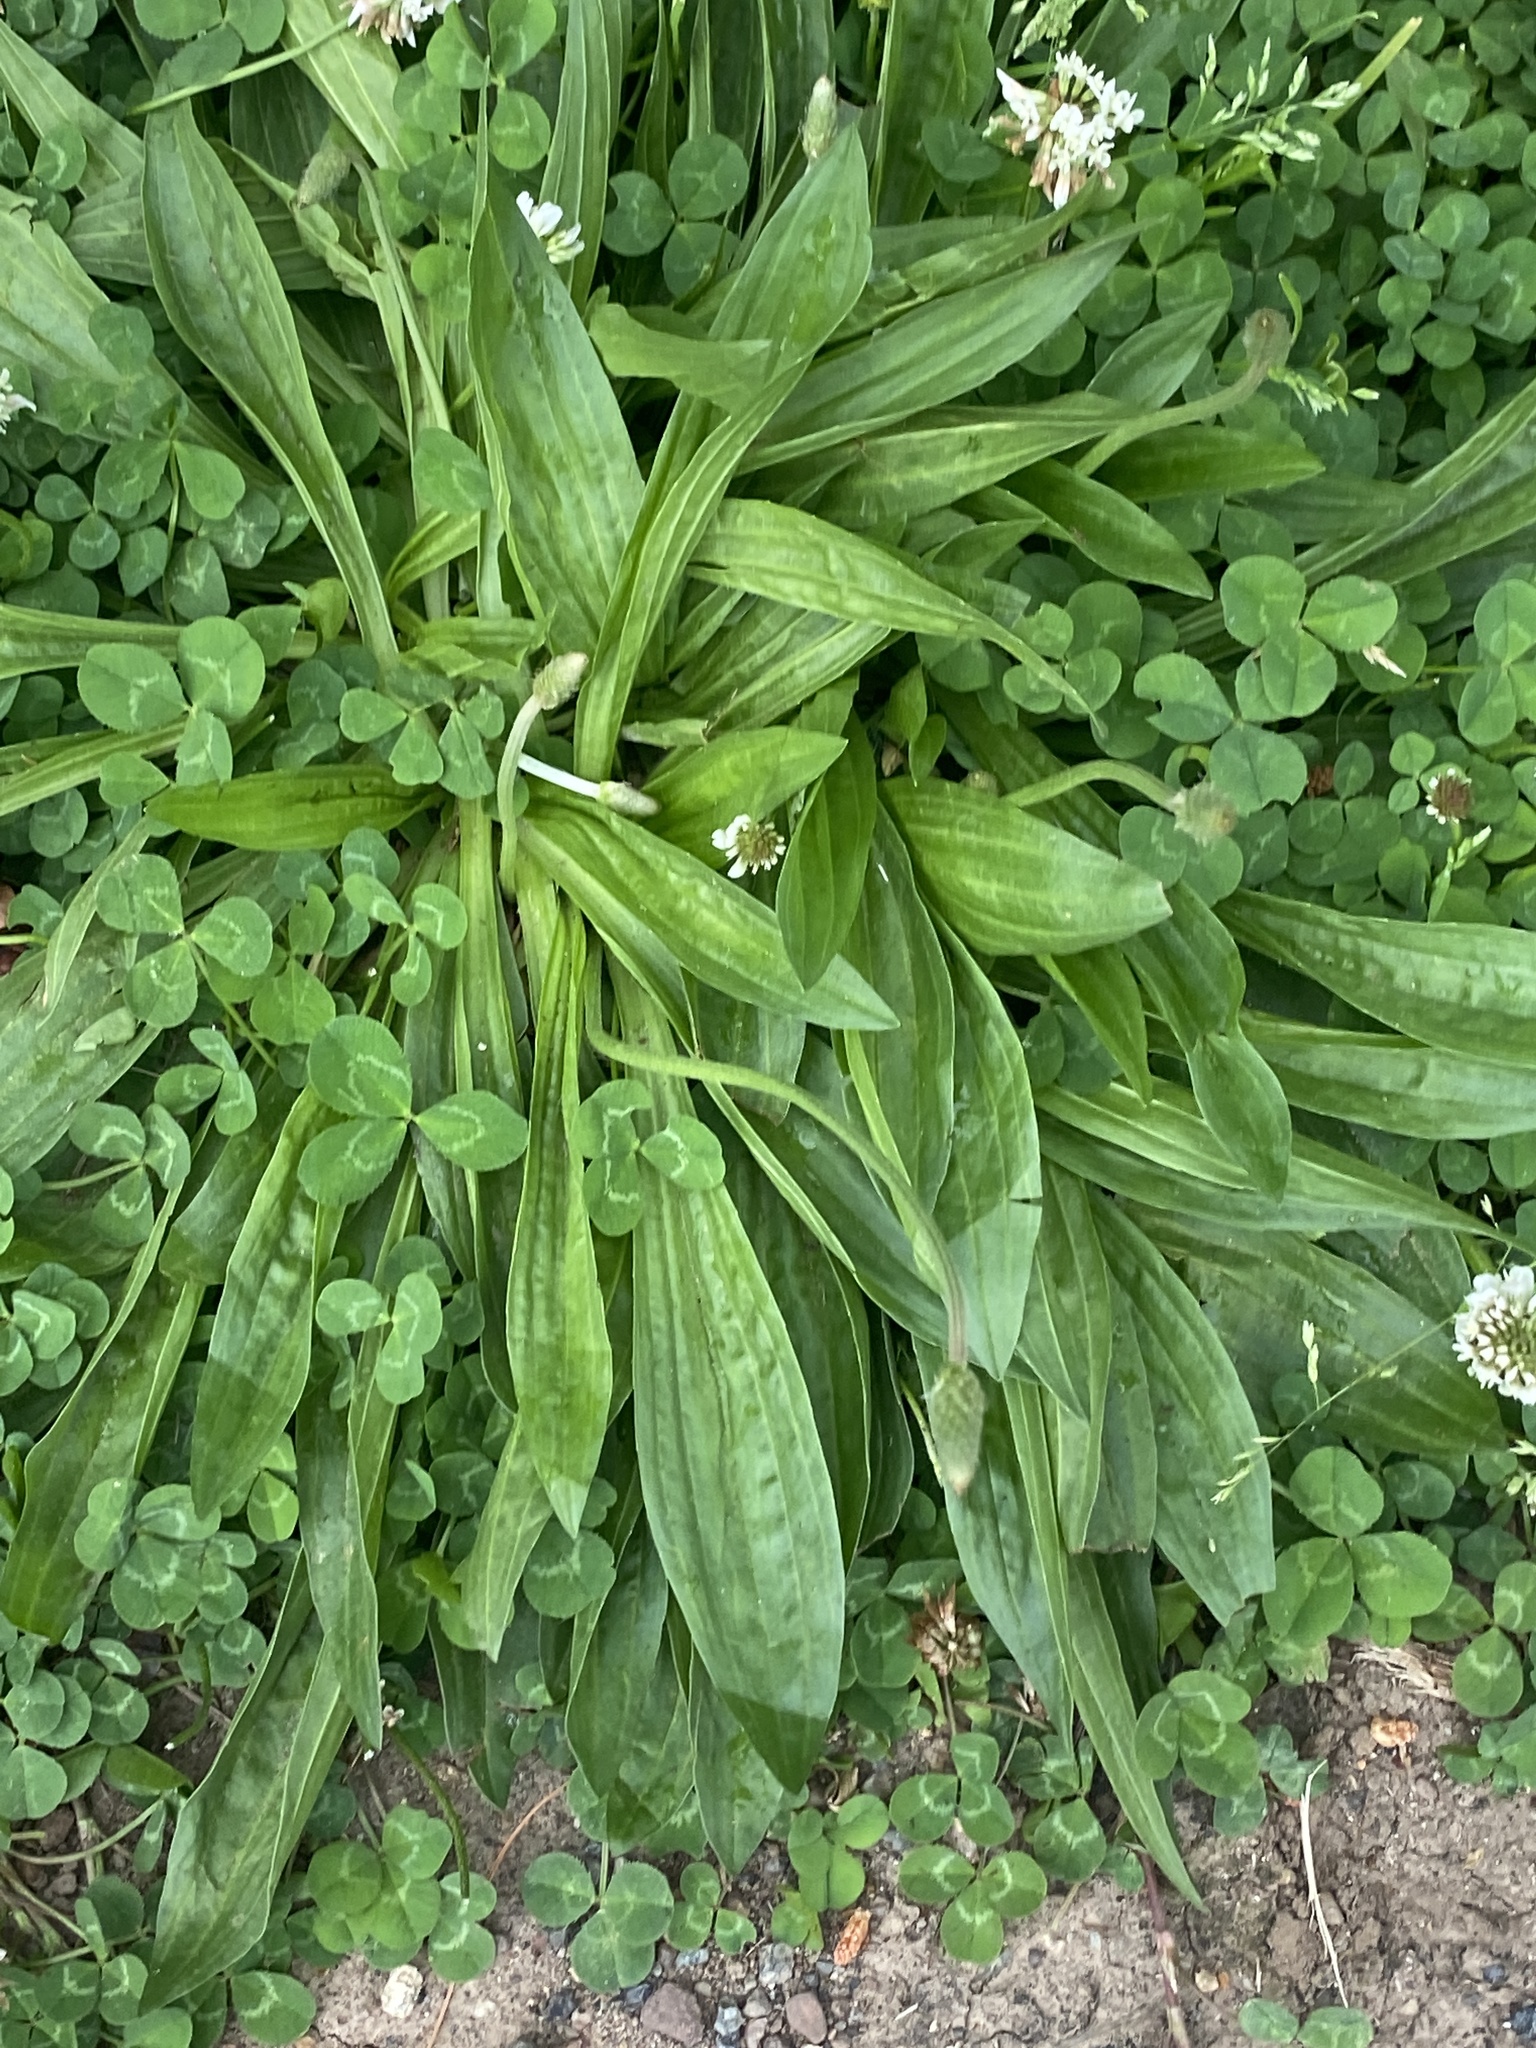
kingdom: Plantae
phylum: Tracheophyta
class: Magnoliopsida
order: Lamiales
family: Plantaginaceae
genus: Plantago
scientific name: Plantago lanceolata
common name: Ribwort plantain
